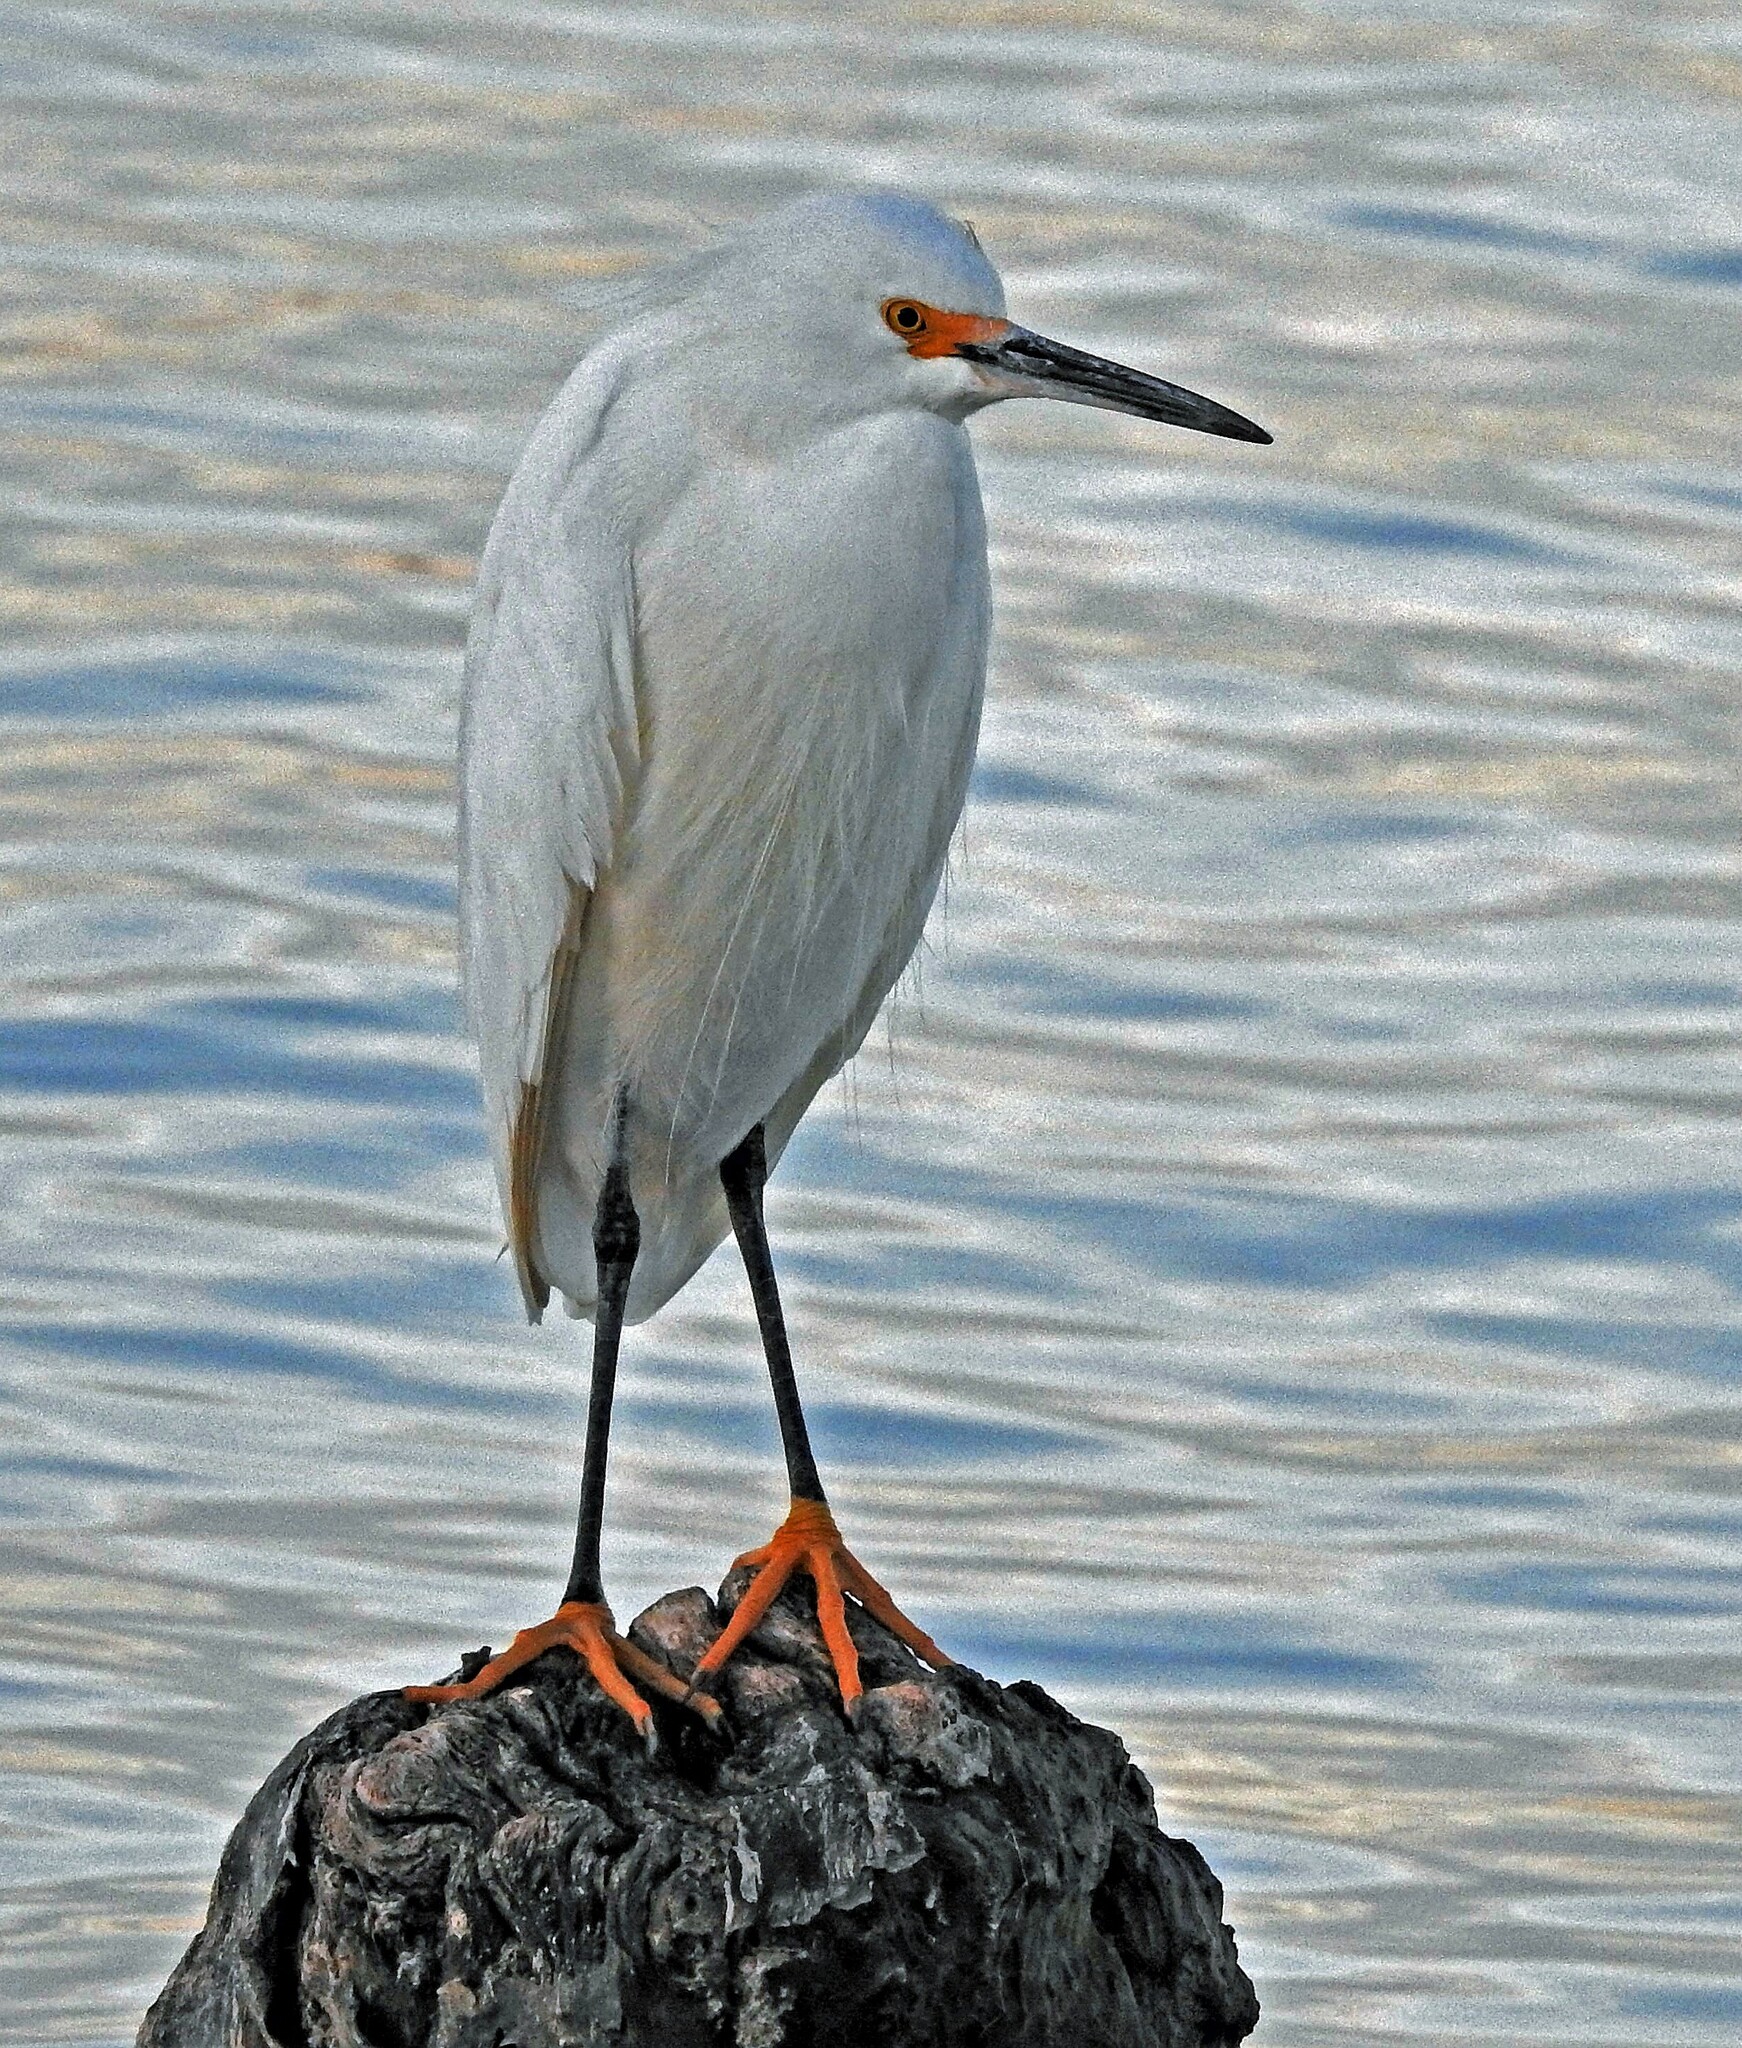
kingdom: Animalia
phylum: Chordata
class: Aves
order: Pelecaniformes
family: Ardeidae
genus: Egretta
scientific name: Egretta thula
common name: Snowy egret
